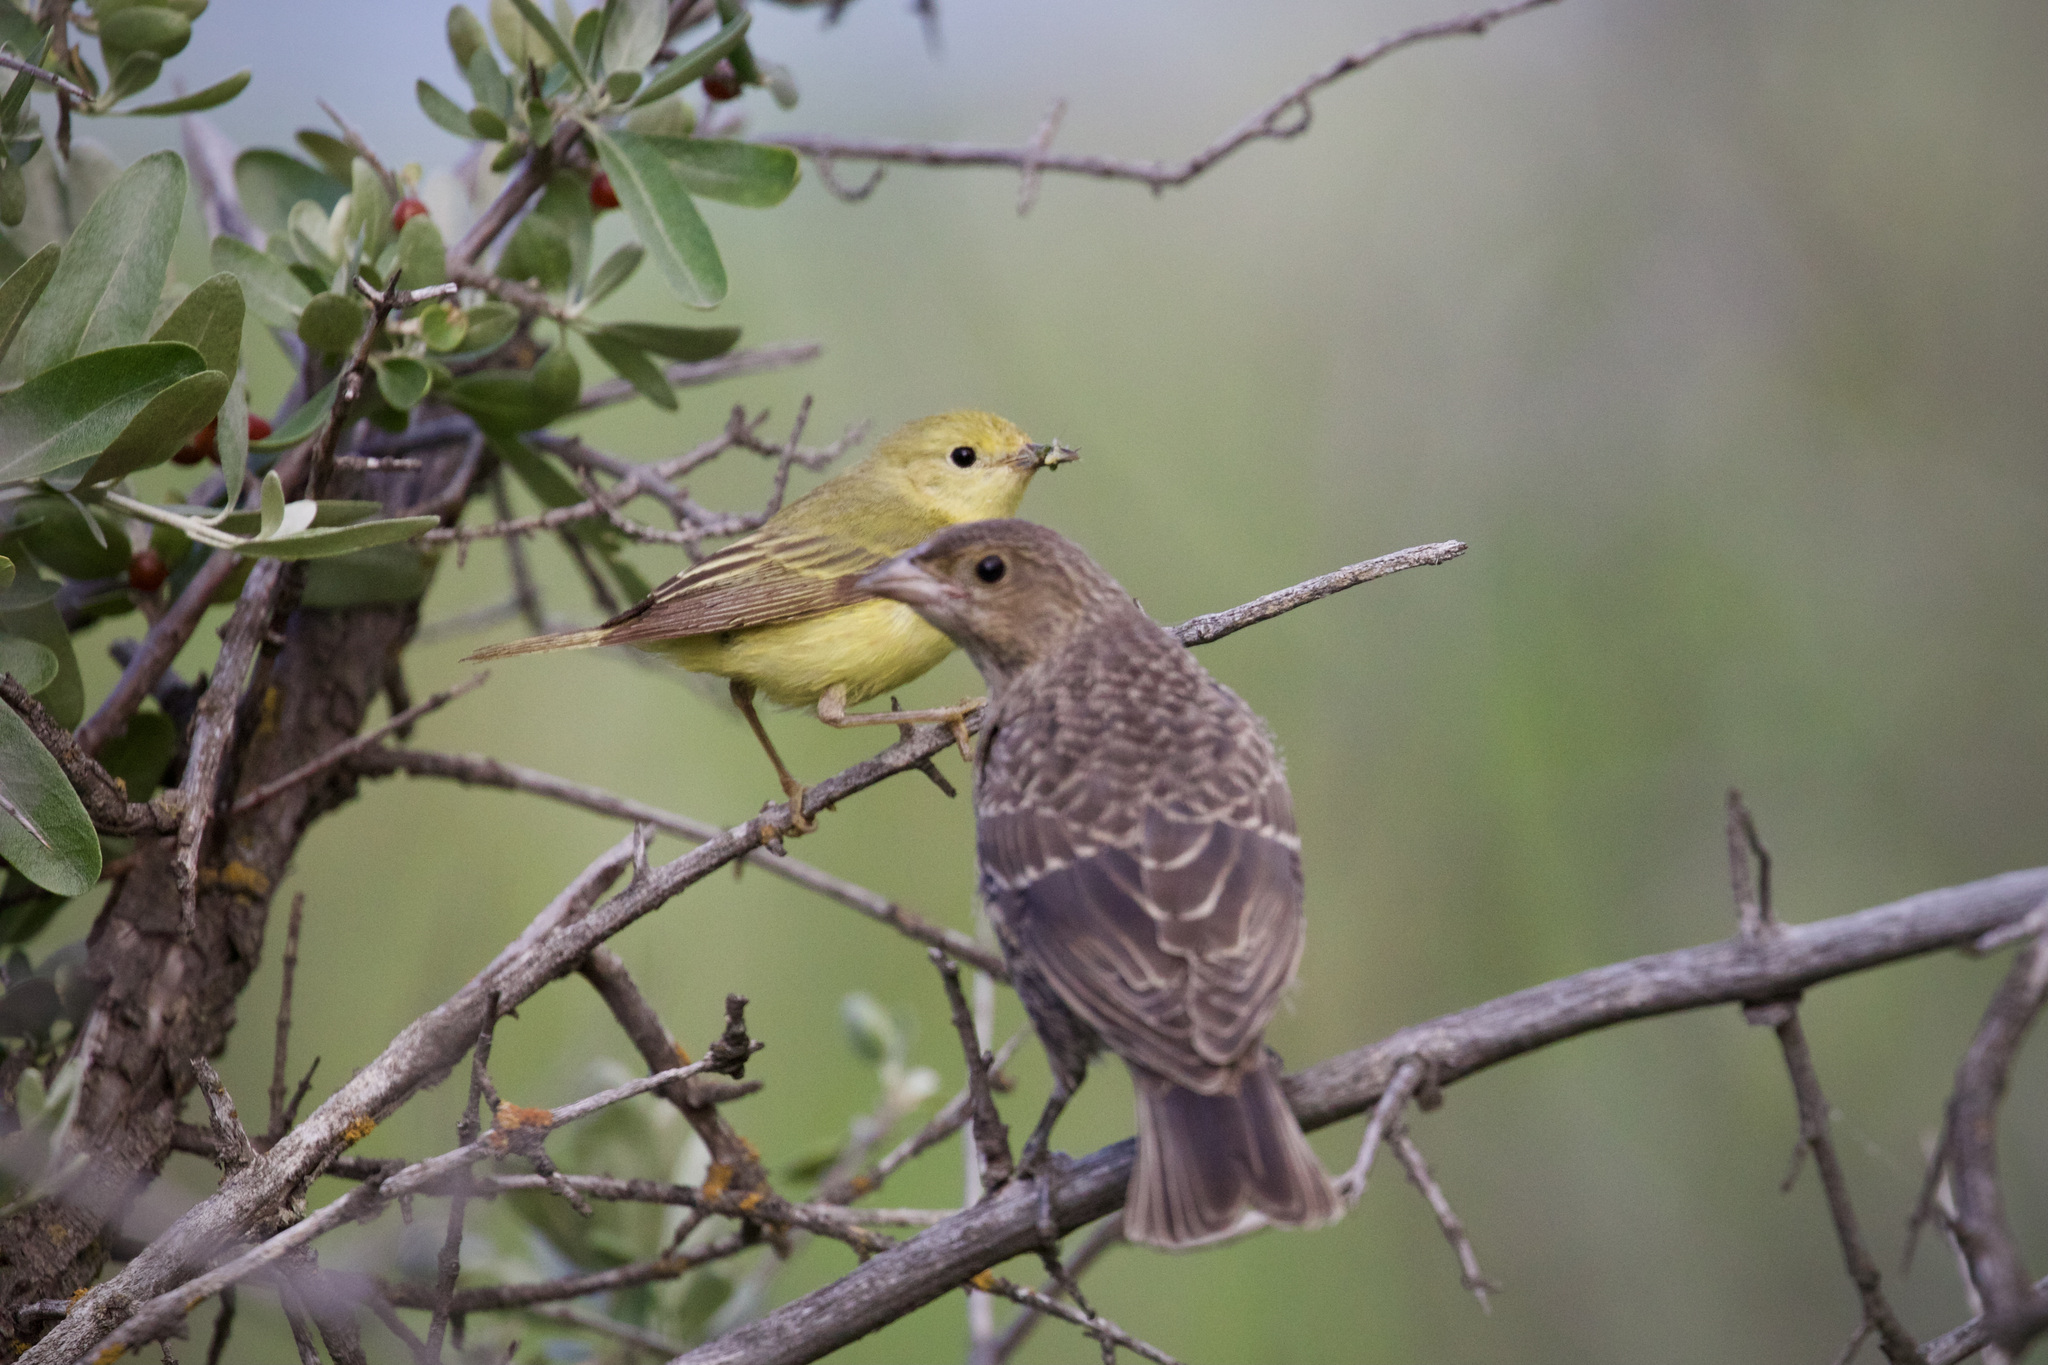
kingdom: Animalia
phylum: Chordata
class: Aves
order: Passeriformes
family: Parulidae
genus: Setophaga
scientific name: Setophaga petechia
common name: Yellow warbler
